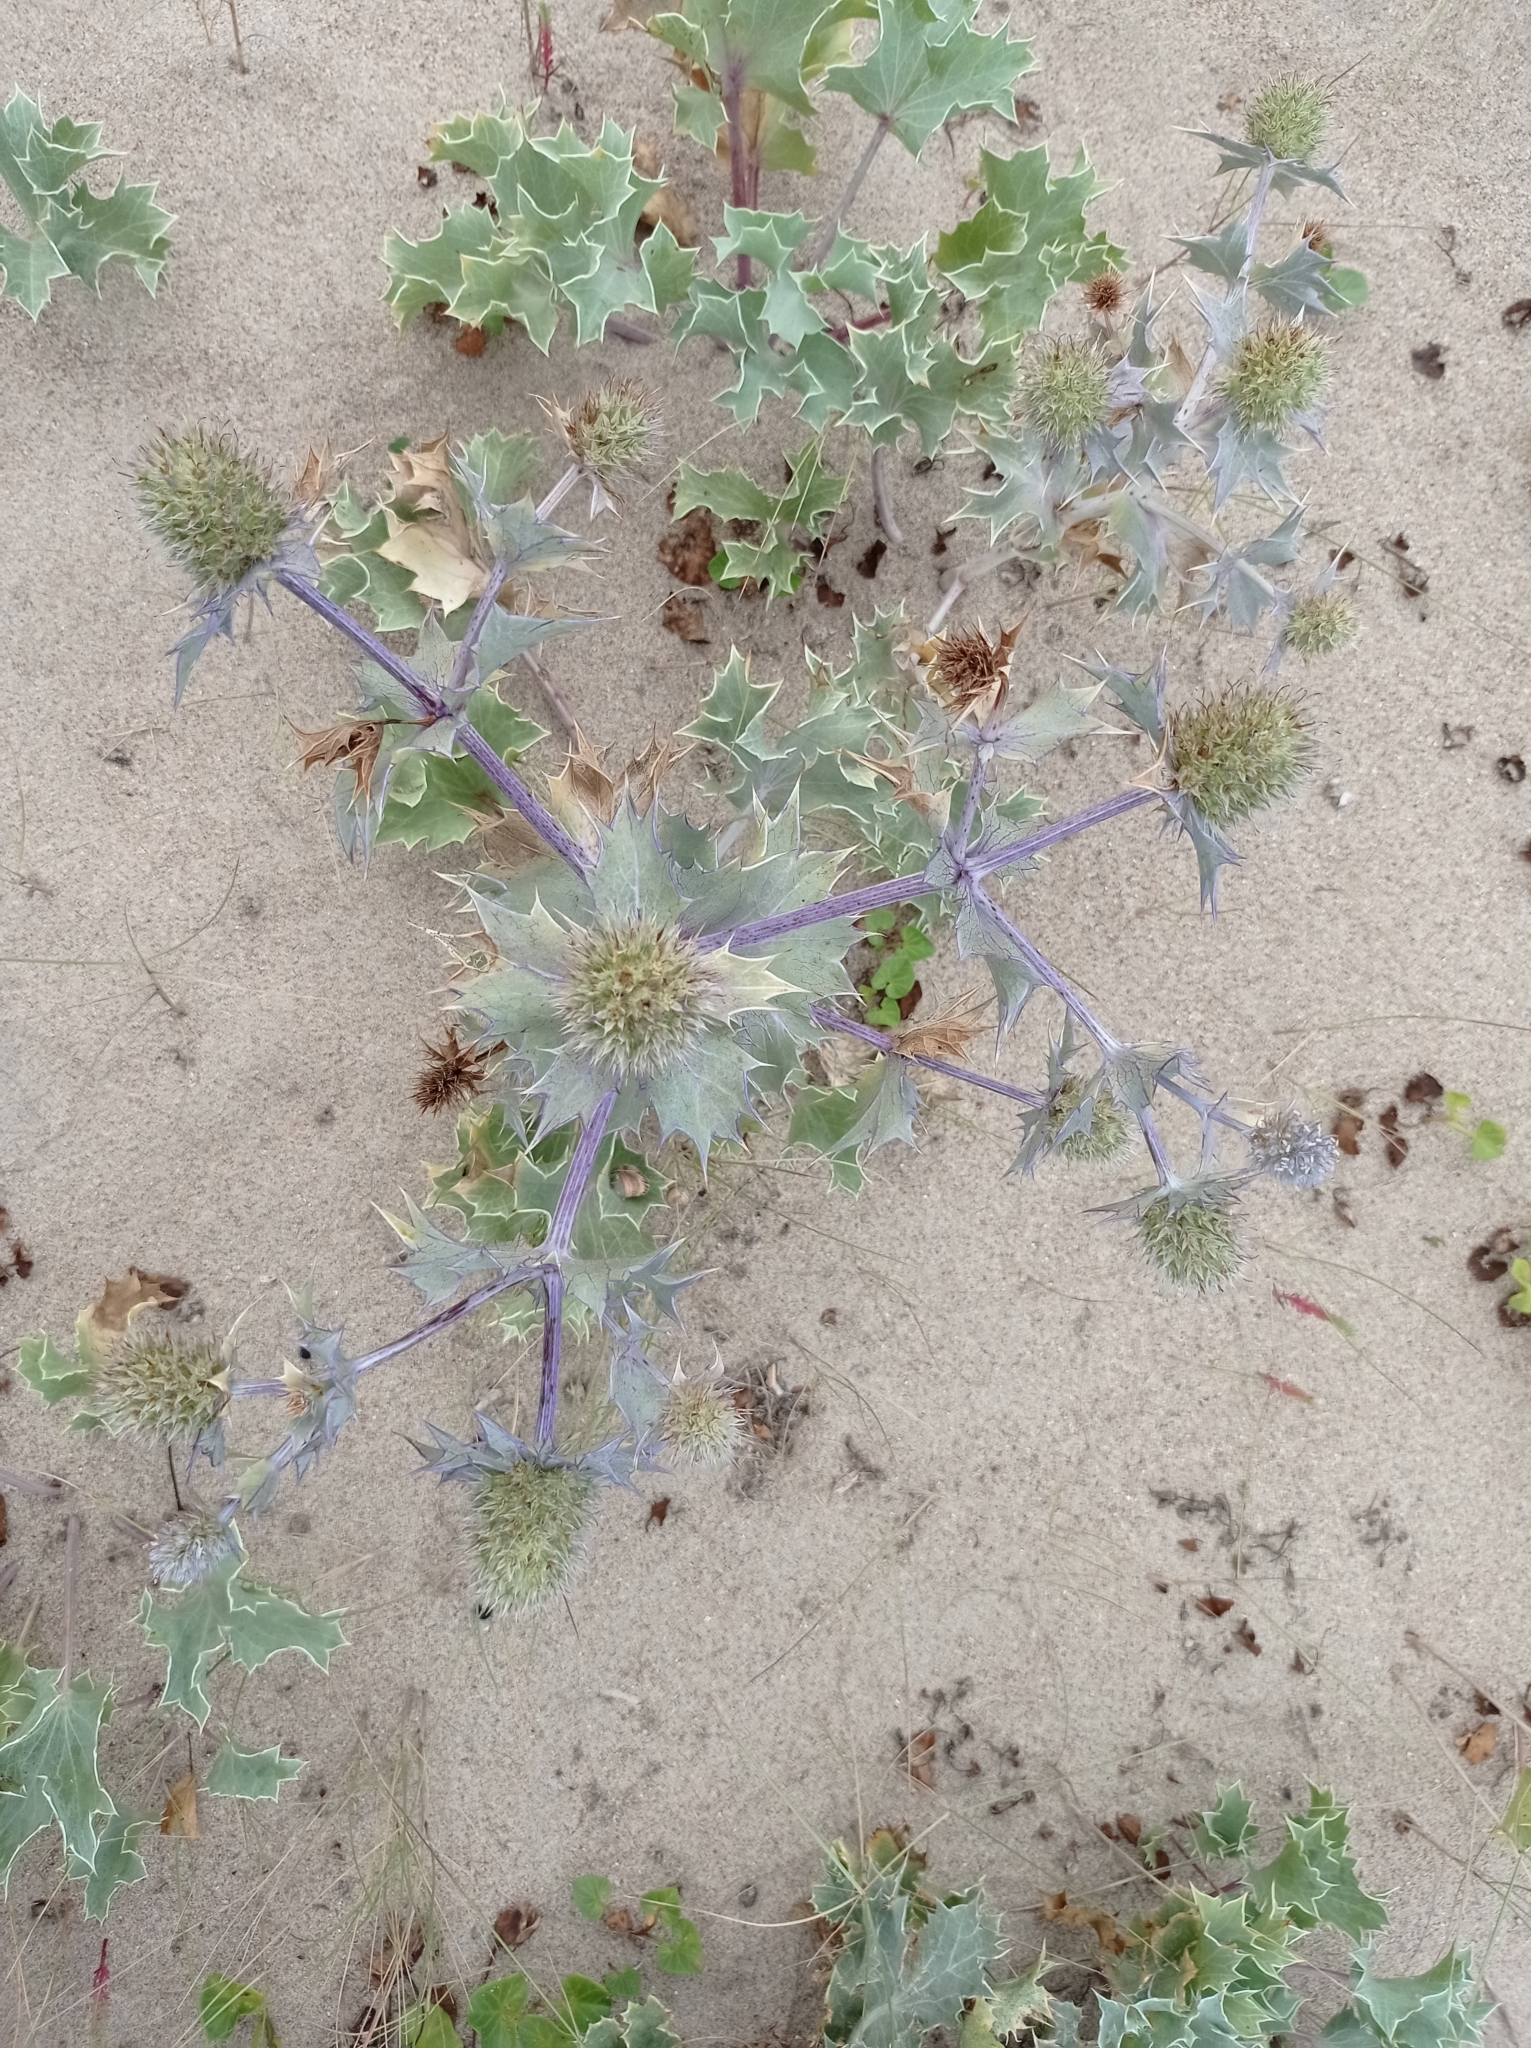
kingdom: Plantae
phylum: Tracheophyta
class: Magnoliopsida
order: Apiales
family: Apiaceae
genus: Eryngium
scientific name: Eryngium maritimum
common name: Sea-holly
